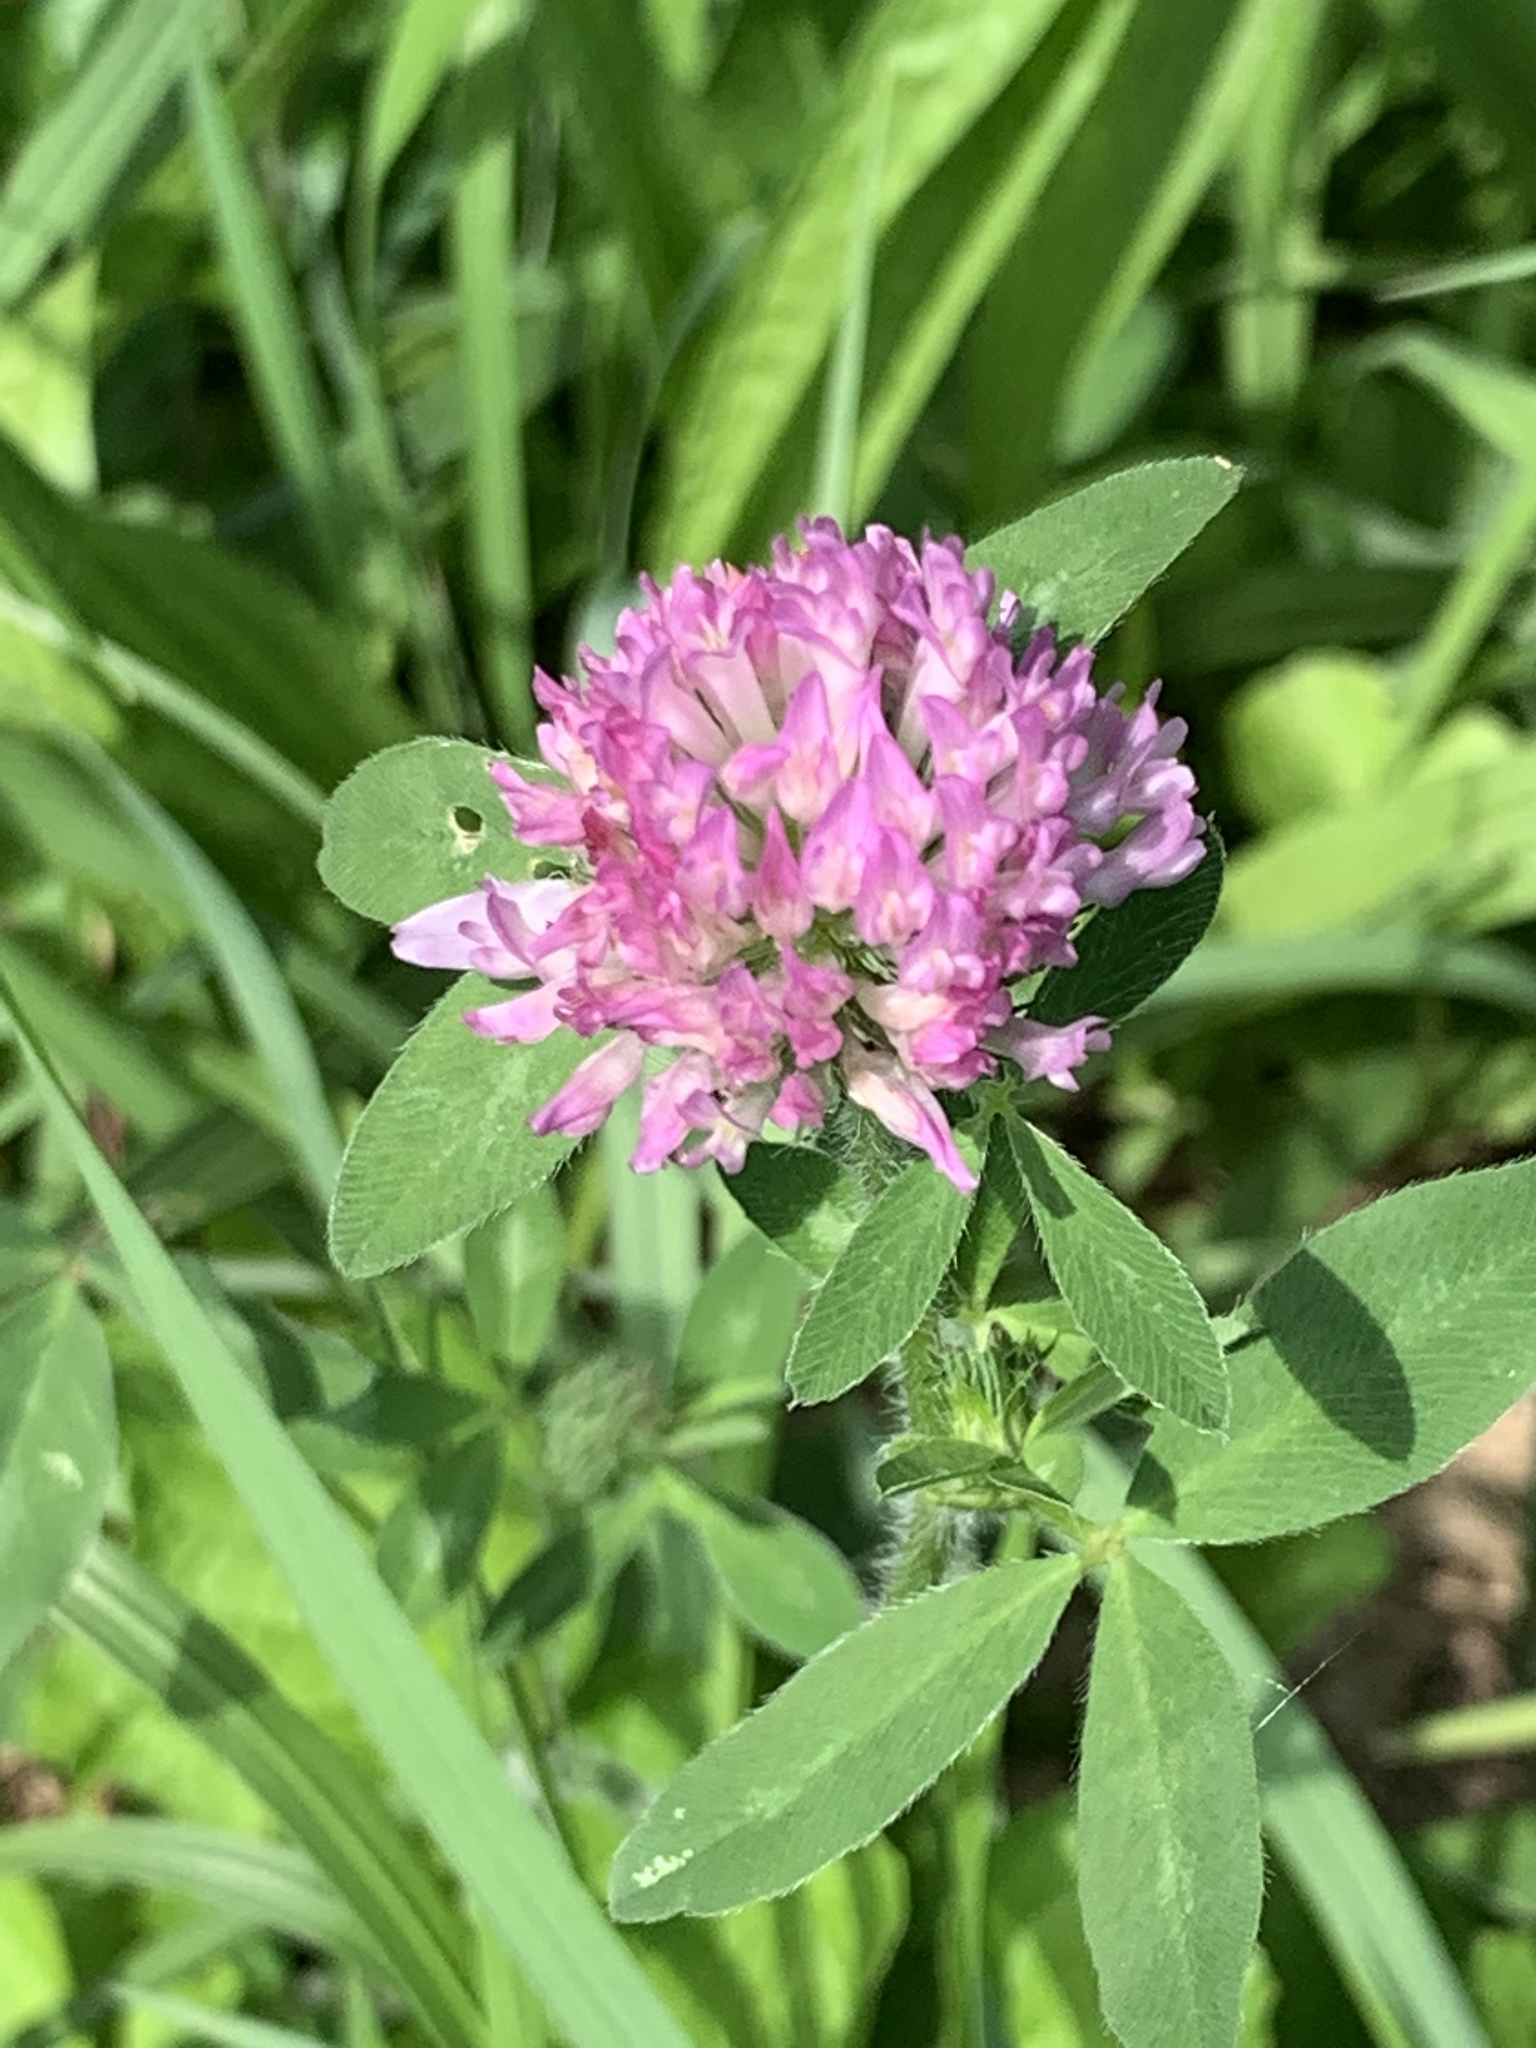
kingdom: Plantae
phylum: Tracheophyta
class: Magnoliopsida
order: Fabales
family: Fabaceae
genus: Trifolium
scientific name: Trifolium pratense
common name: Red clover
